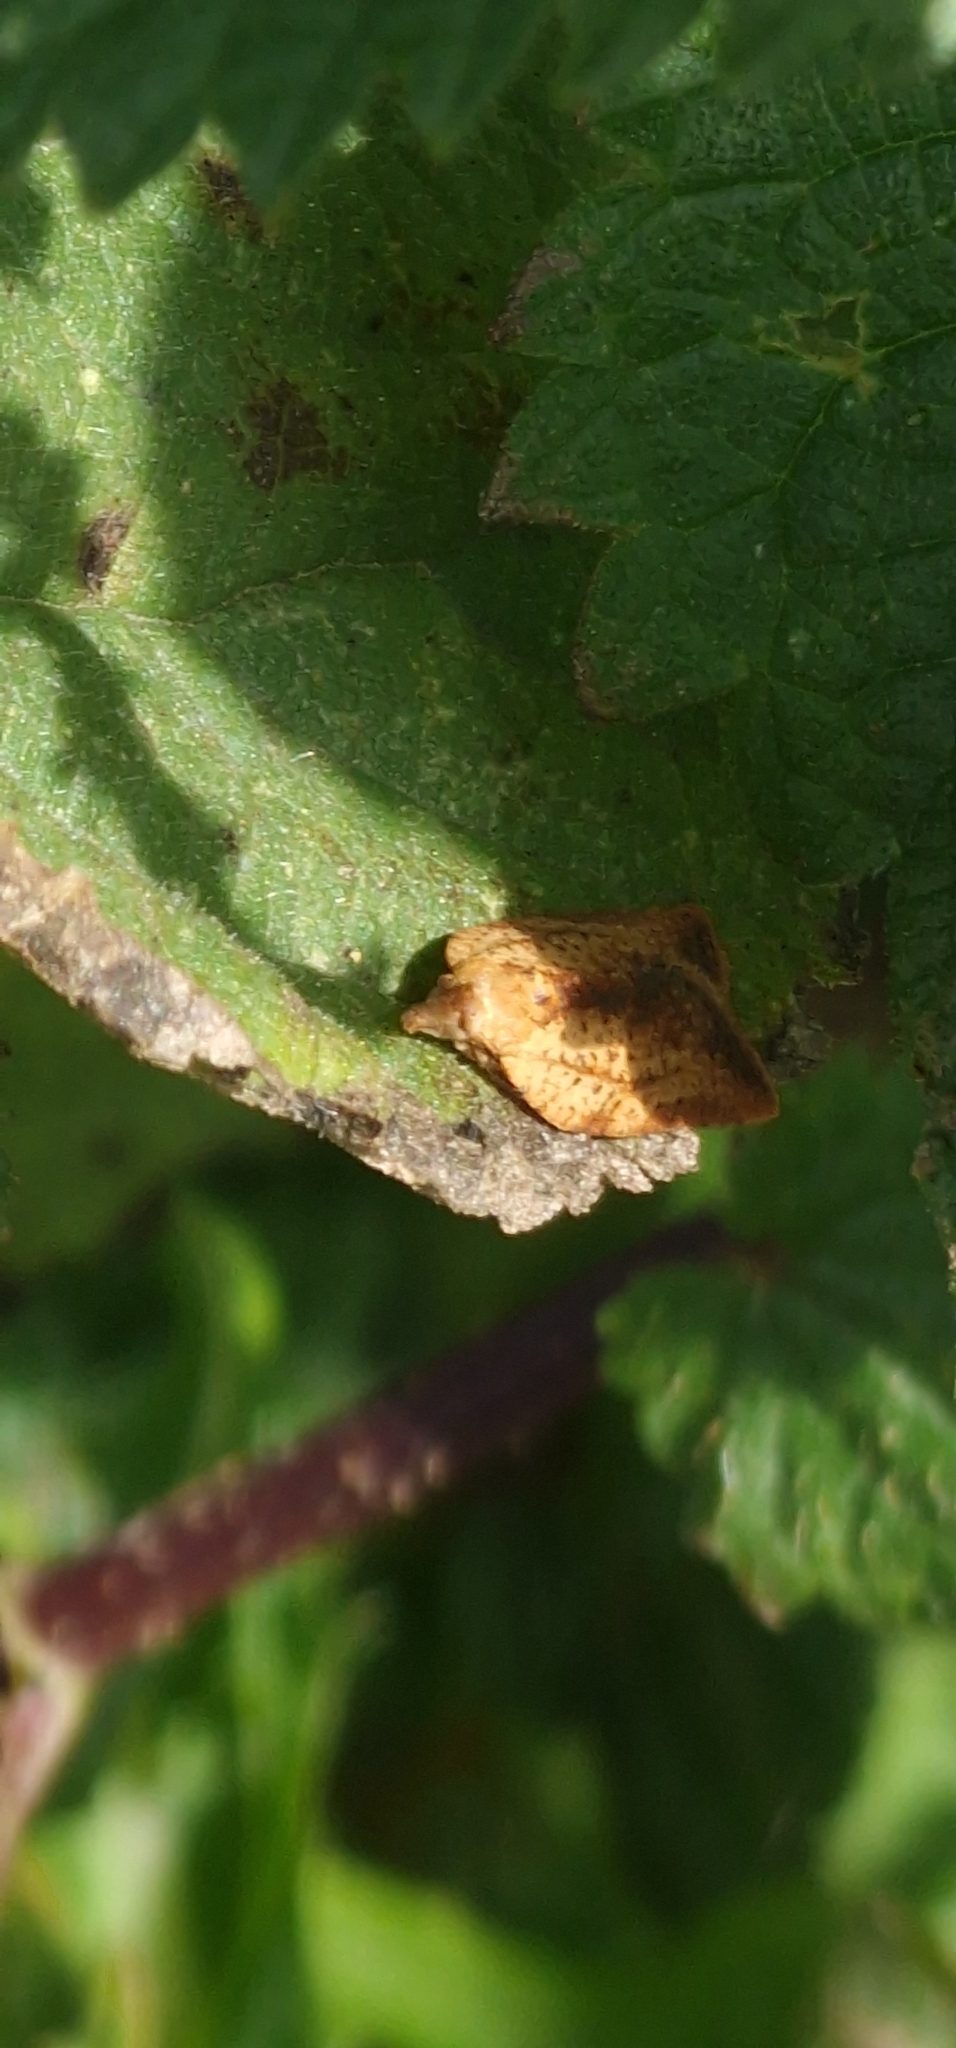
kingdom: Animalia
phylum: Arthropoda
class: Insecta
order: Lepidoptera
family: Tortricidae
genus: Epiphyas
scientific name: Epiphyas postvittana
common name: Light brown apple moth
